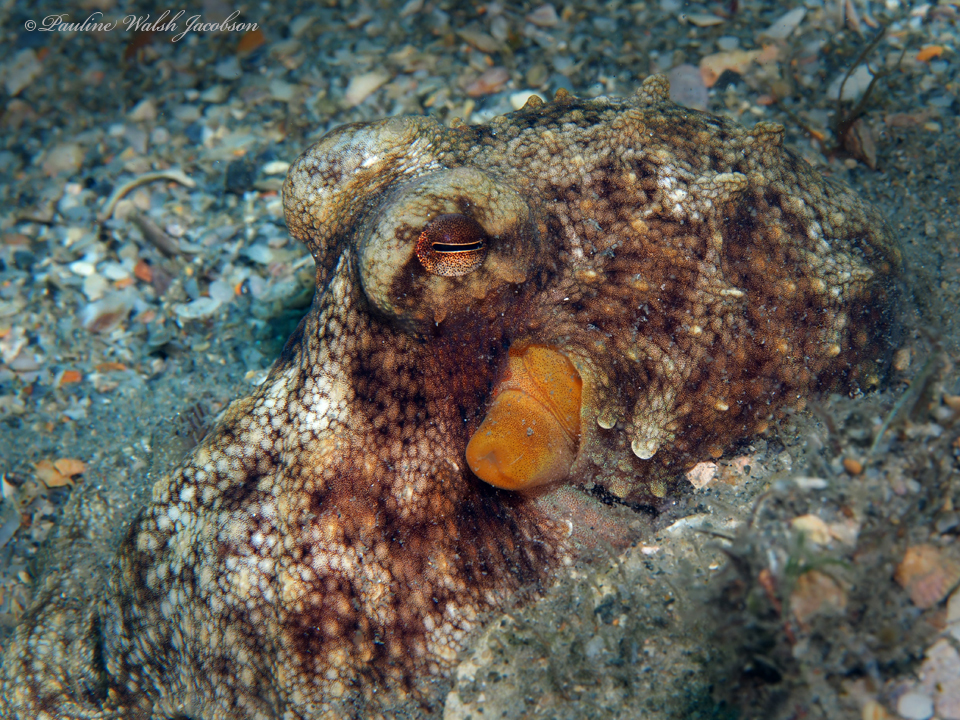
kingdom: Animalia
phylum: Mollusca
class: Cephalopoda
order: Octopoda
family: Octopodidae
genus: Octopus
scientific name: Octopus americanus
